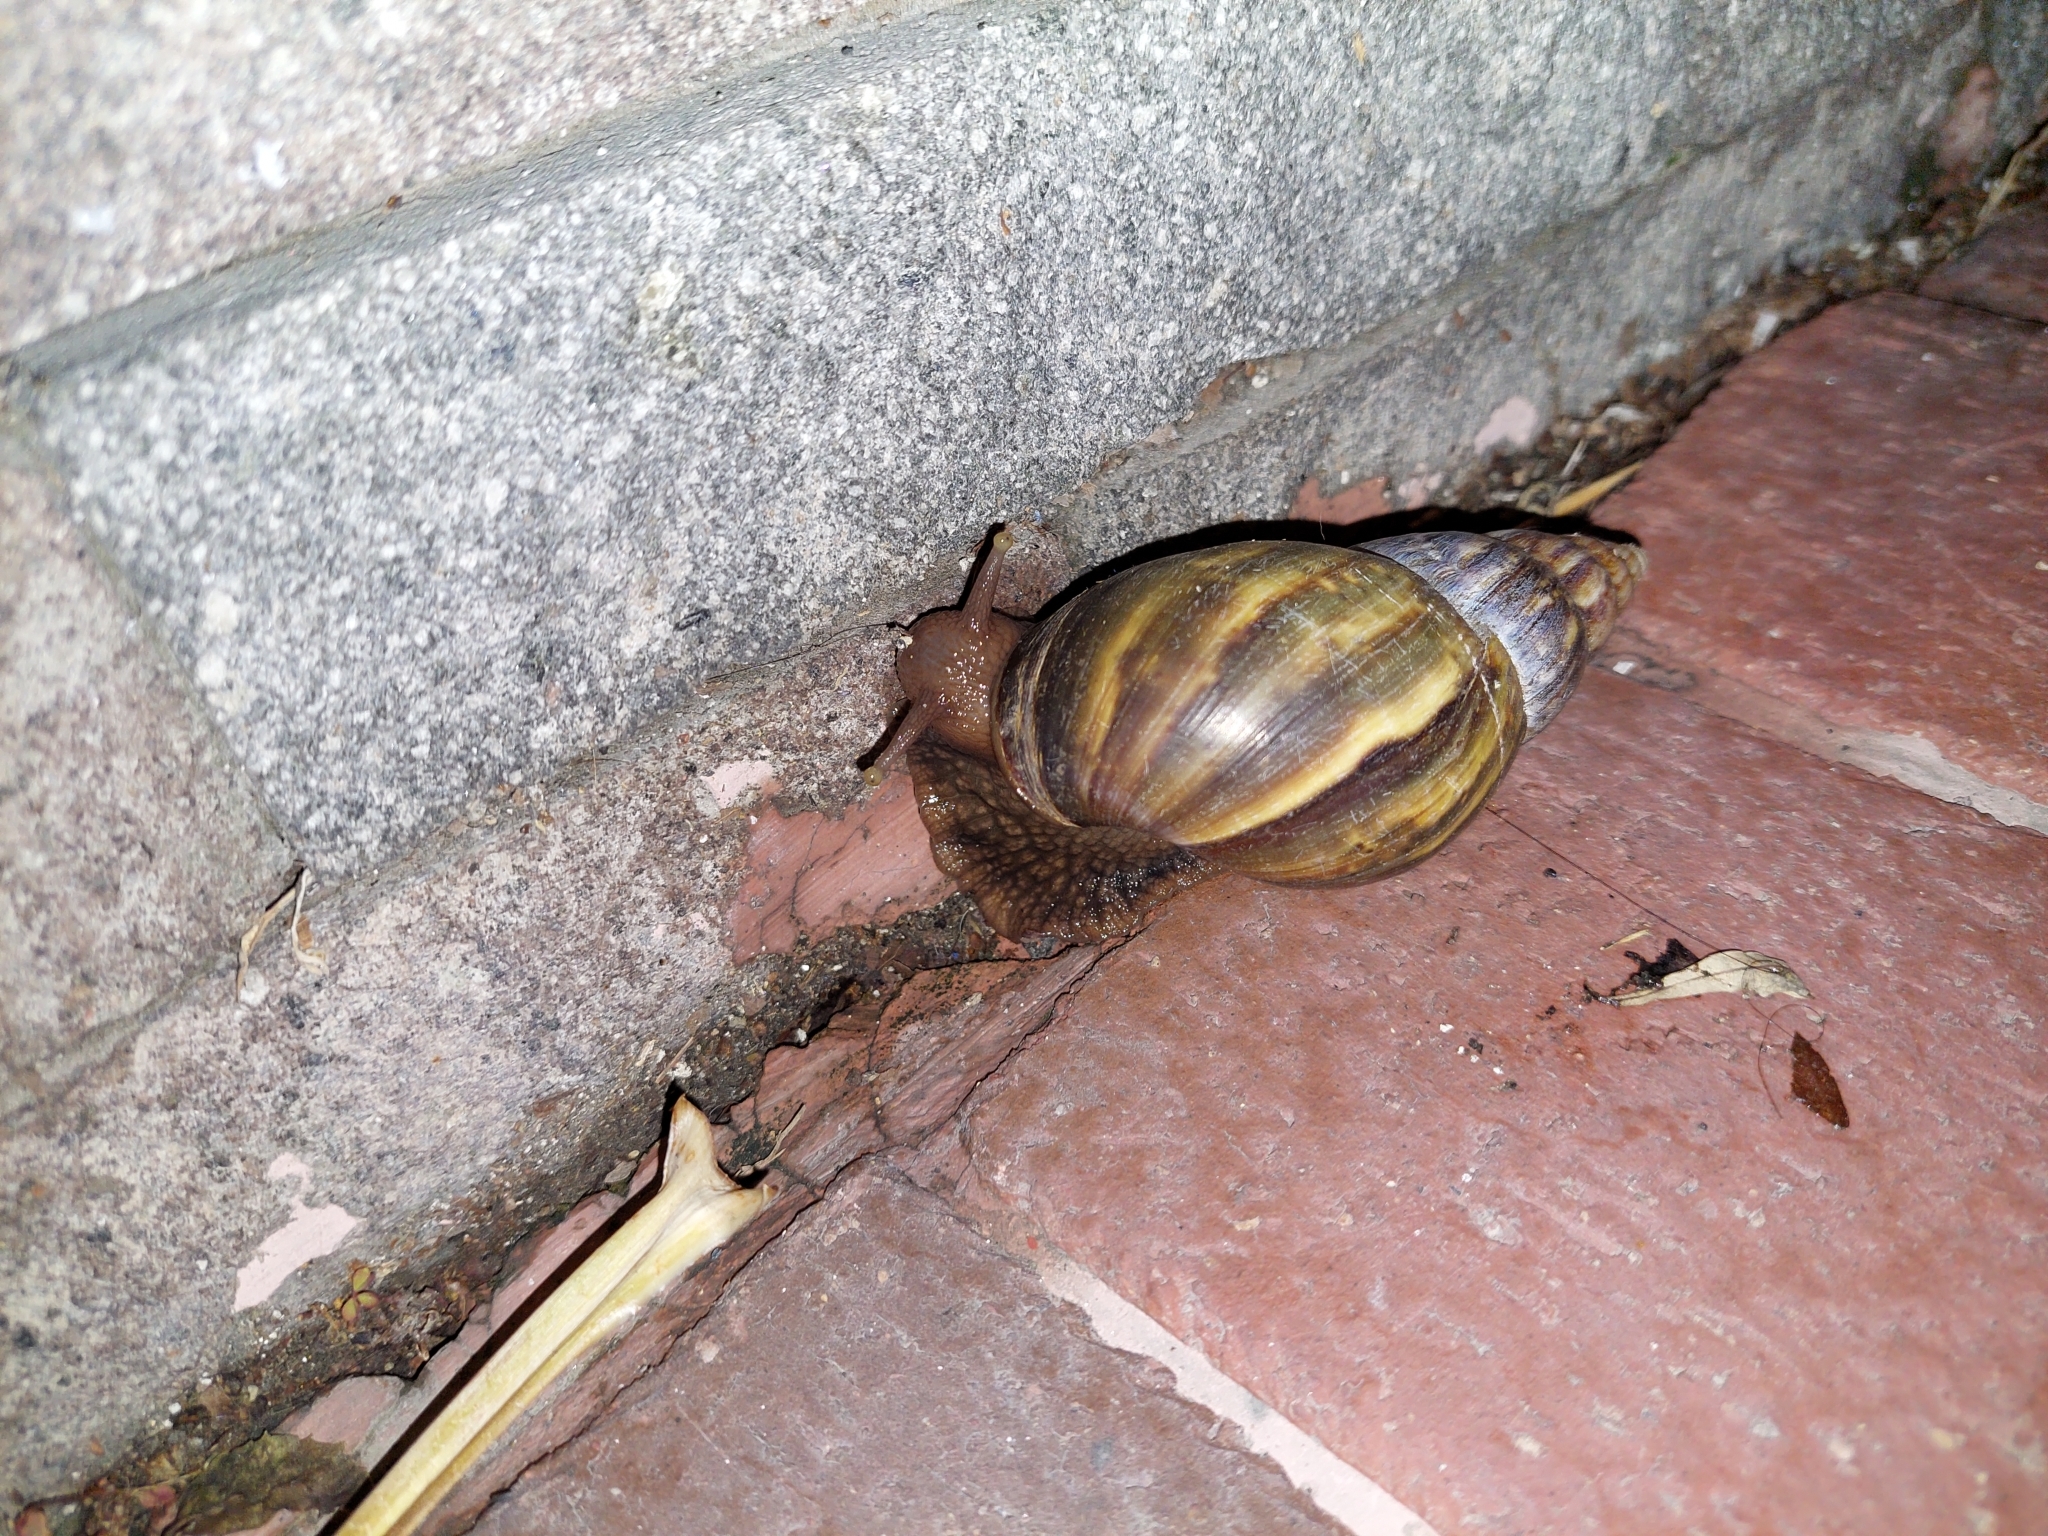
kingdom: Animalia
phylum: Mollusca
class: Gastropoda
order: Stylommatophora
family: Achatinidae
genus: Lissachatina
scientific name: Lissachatina fulica
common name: Giant african snail
